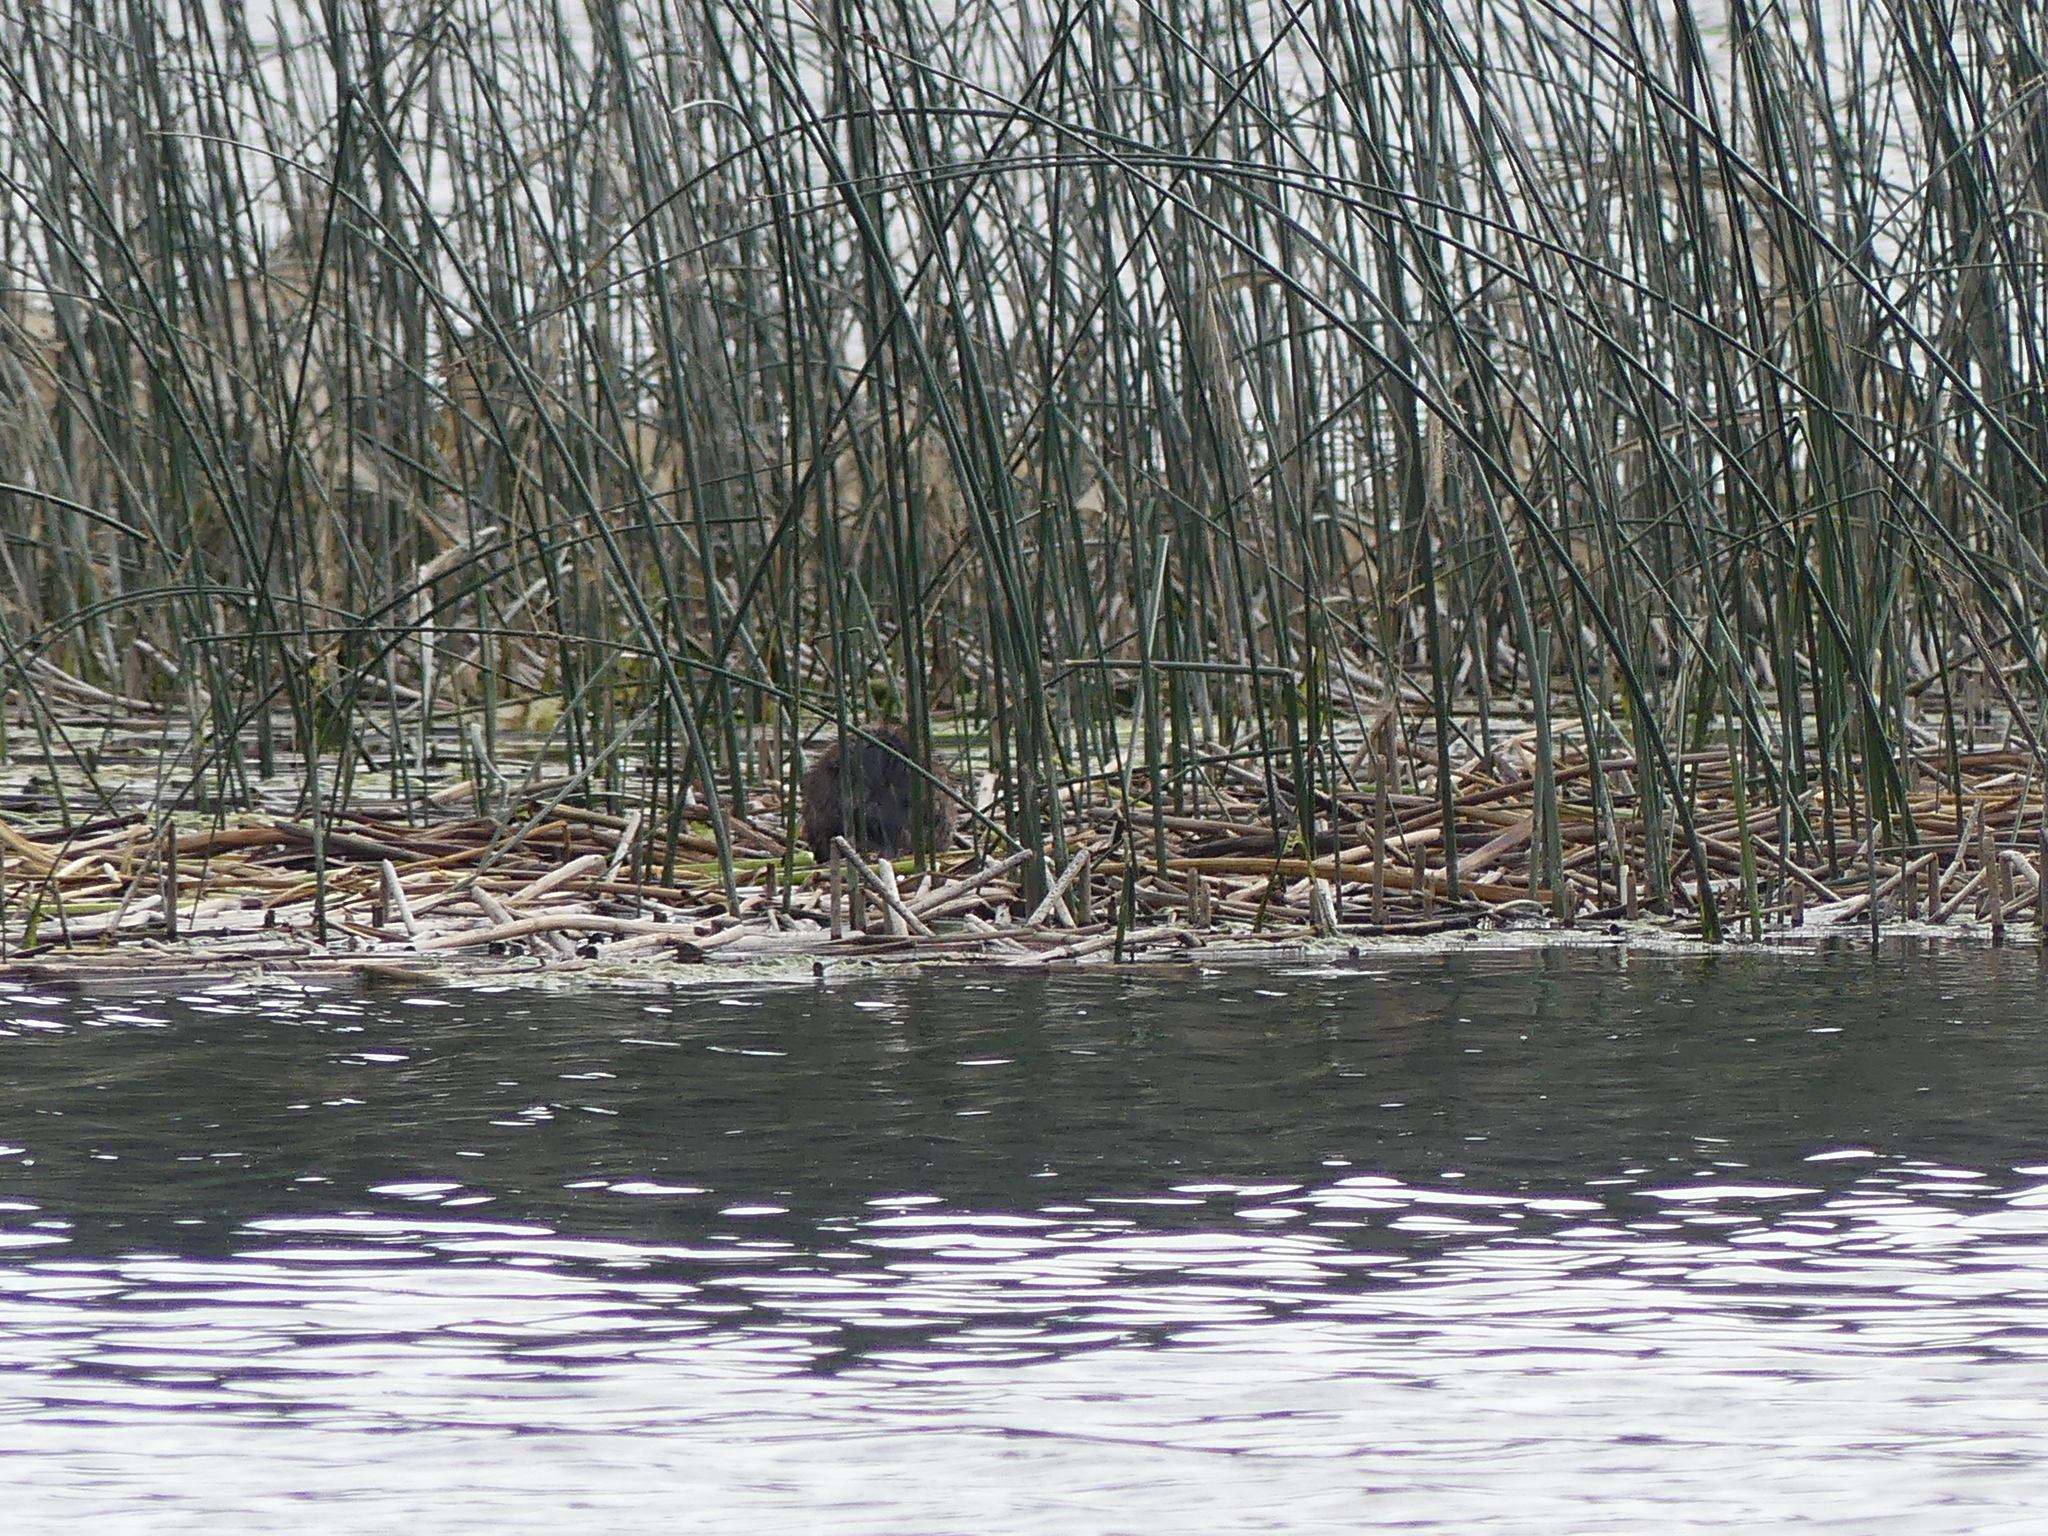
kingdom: Animalia
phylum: Chordata
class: Mammalia
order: Rodentia
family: Cricetidae
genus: Ondatra
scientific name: Ondatra zibethicus
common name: Muskrat
